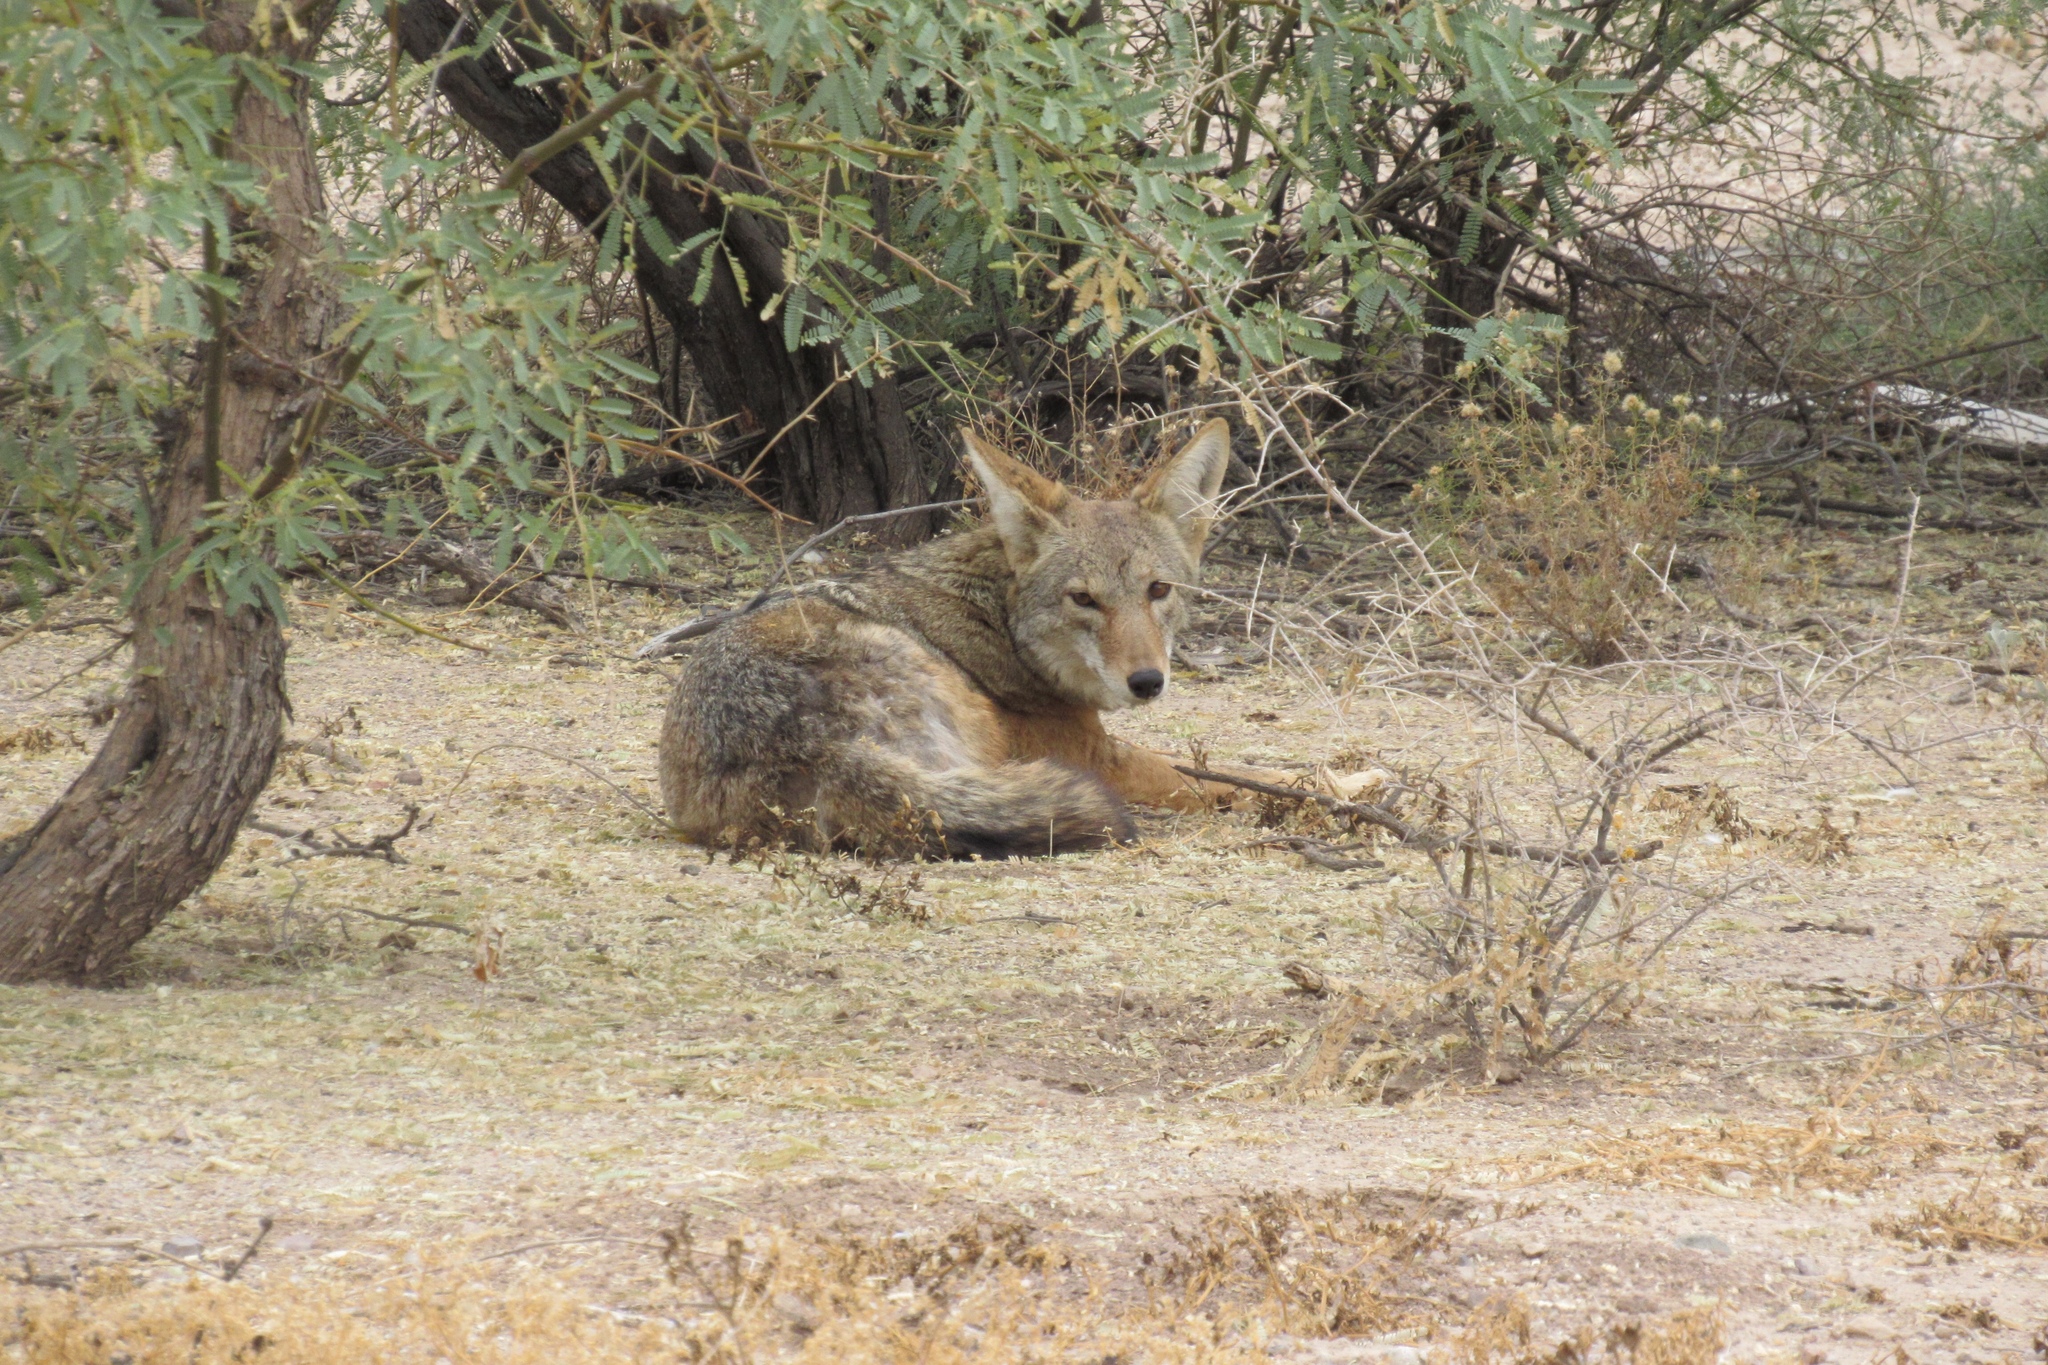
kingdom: Animalia
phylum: Chordata
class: Mammalia
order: Carnivora
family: Canidae
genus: Canis
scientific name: Canis latrans
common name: Coyote
